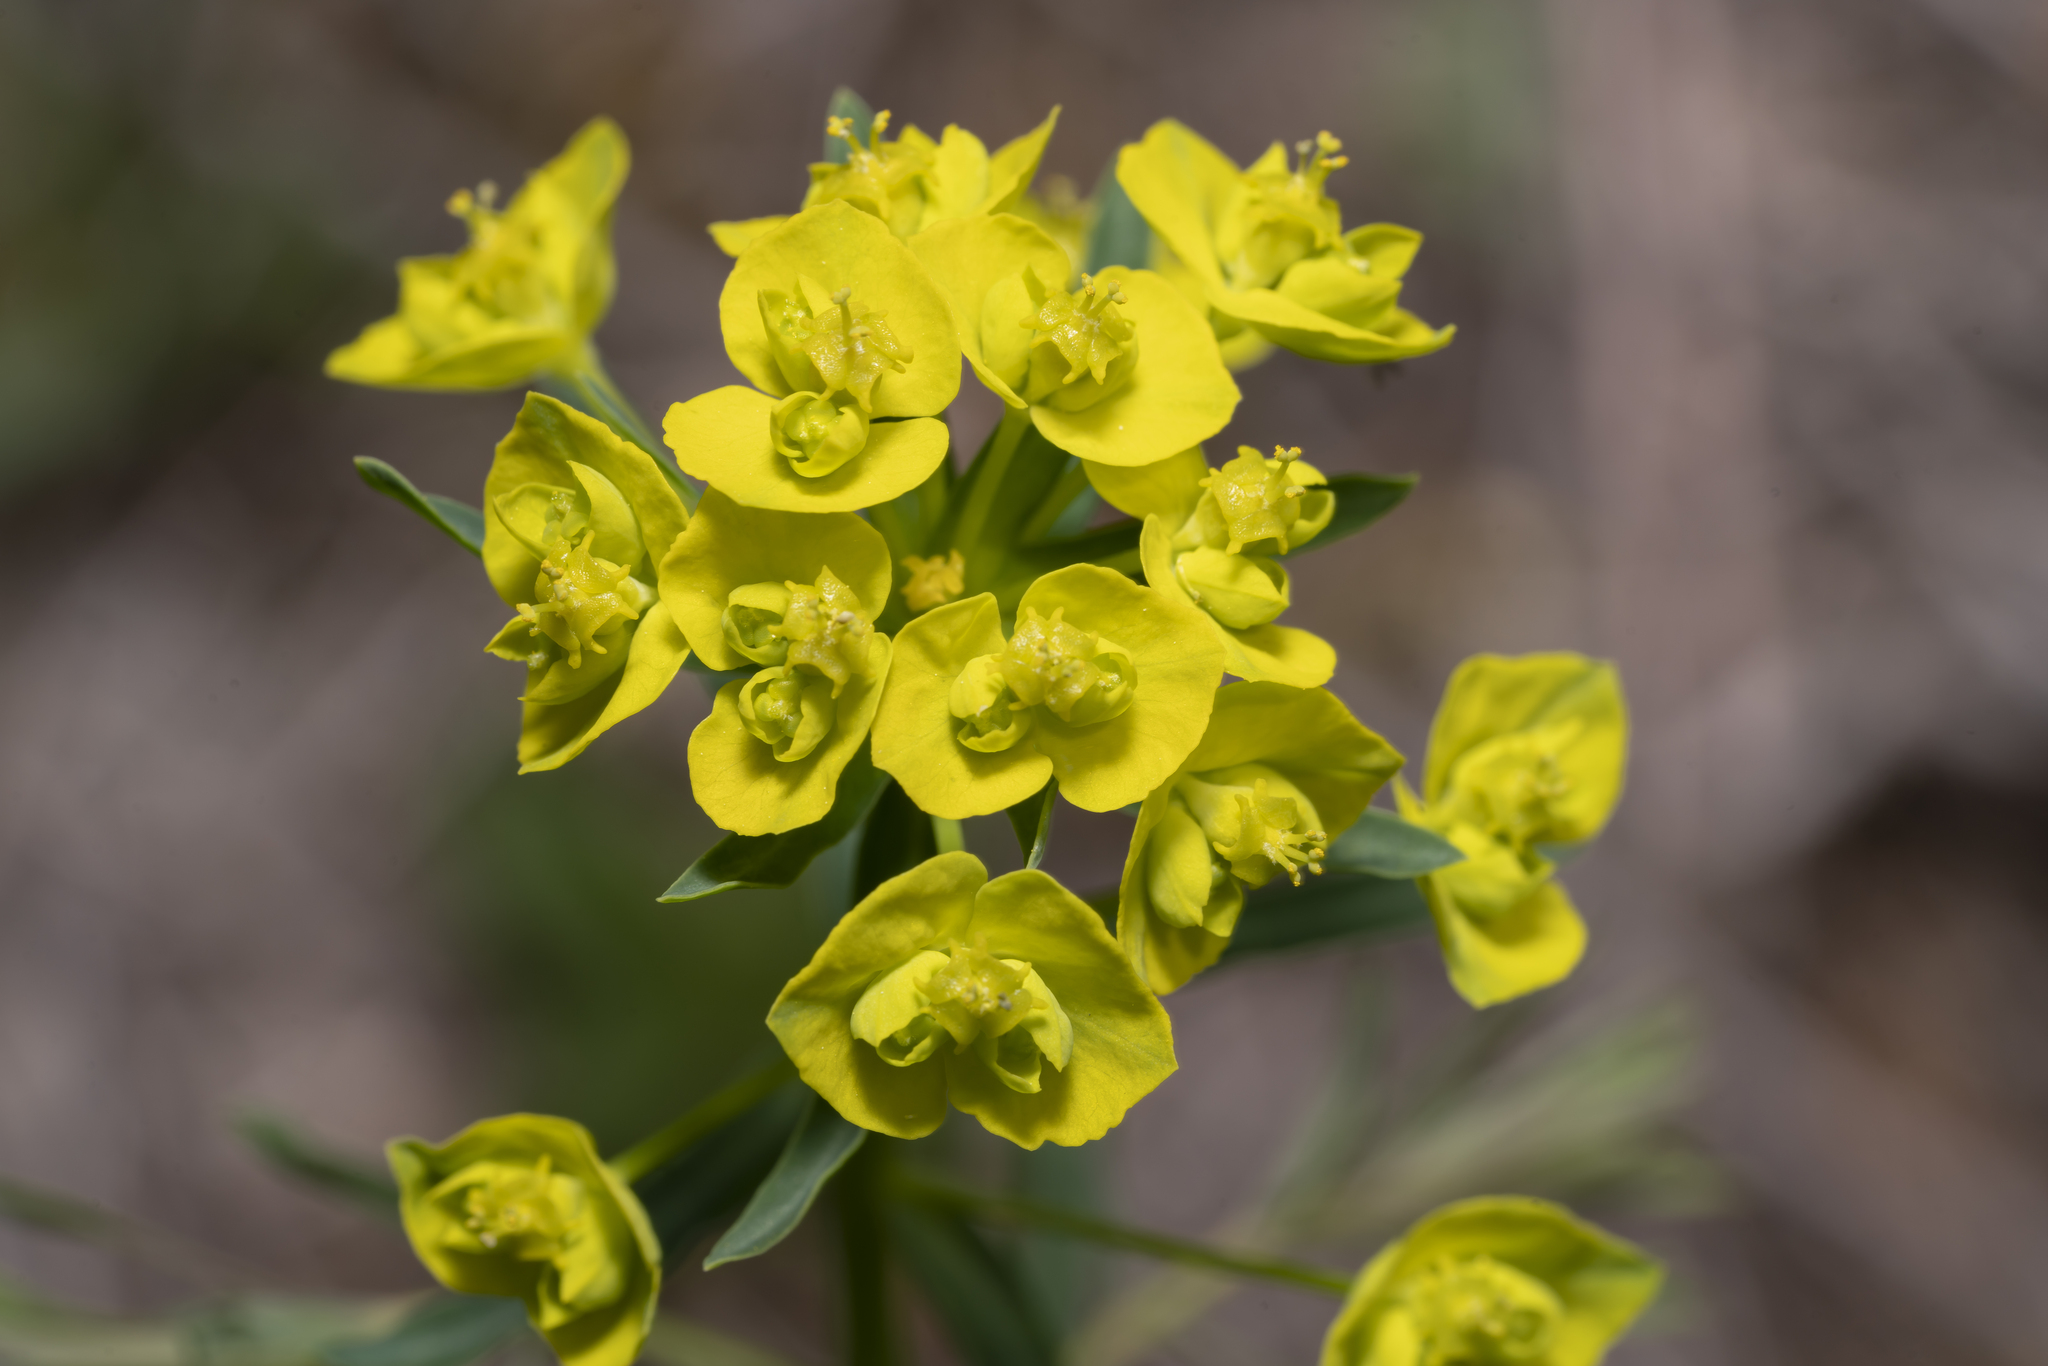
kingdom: Plantae
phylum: Tracheophyta
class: Magnoliopsida
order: Malpighiales
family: Euphorbiaceae
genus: Euphorbia
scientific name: Euphorbia virgata
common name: Leafy spurge
